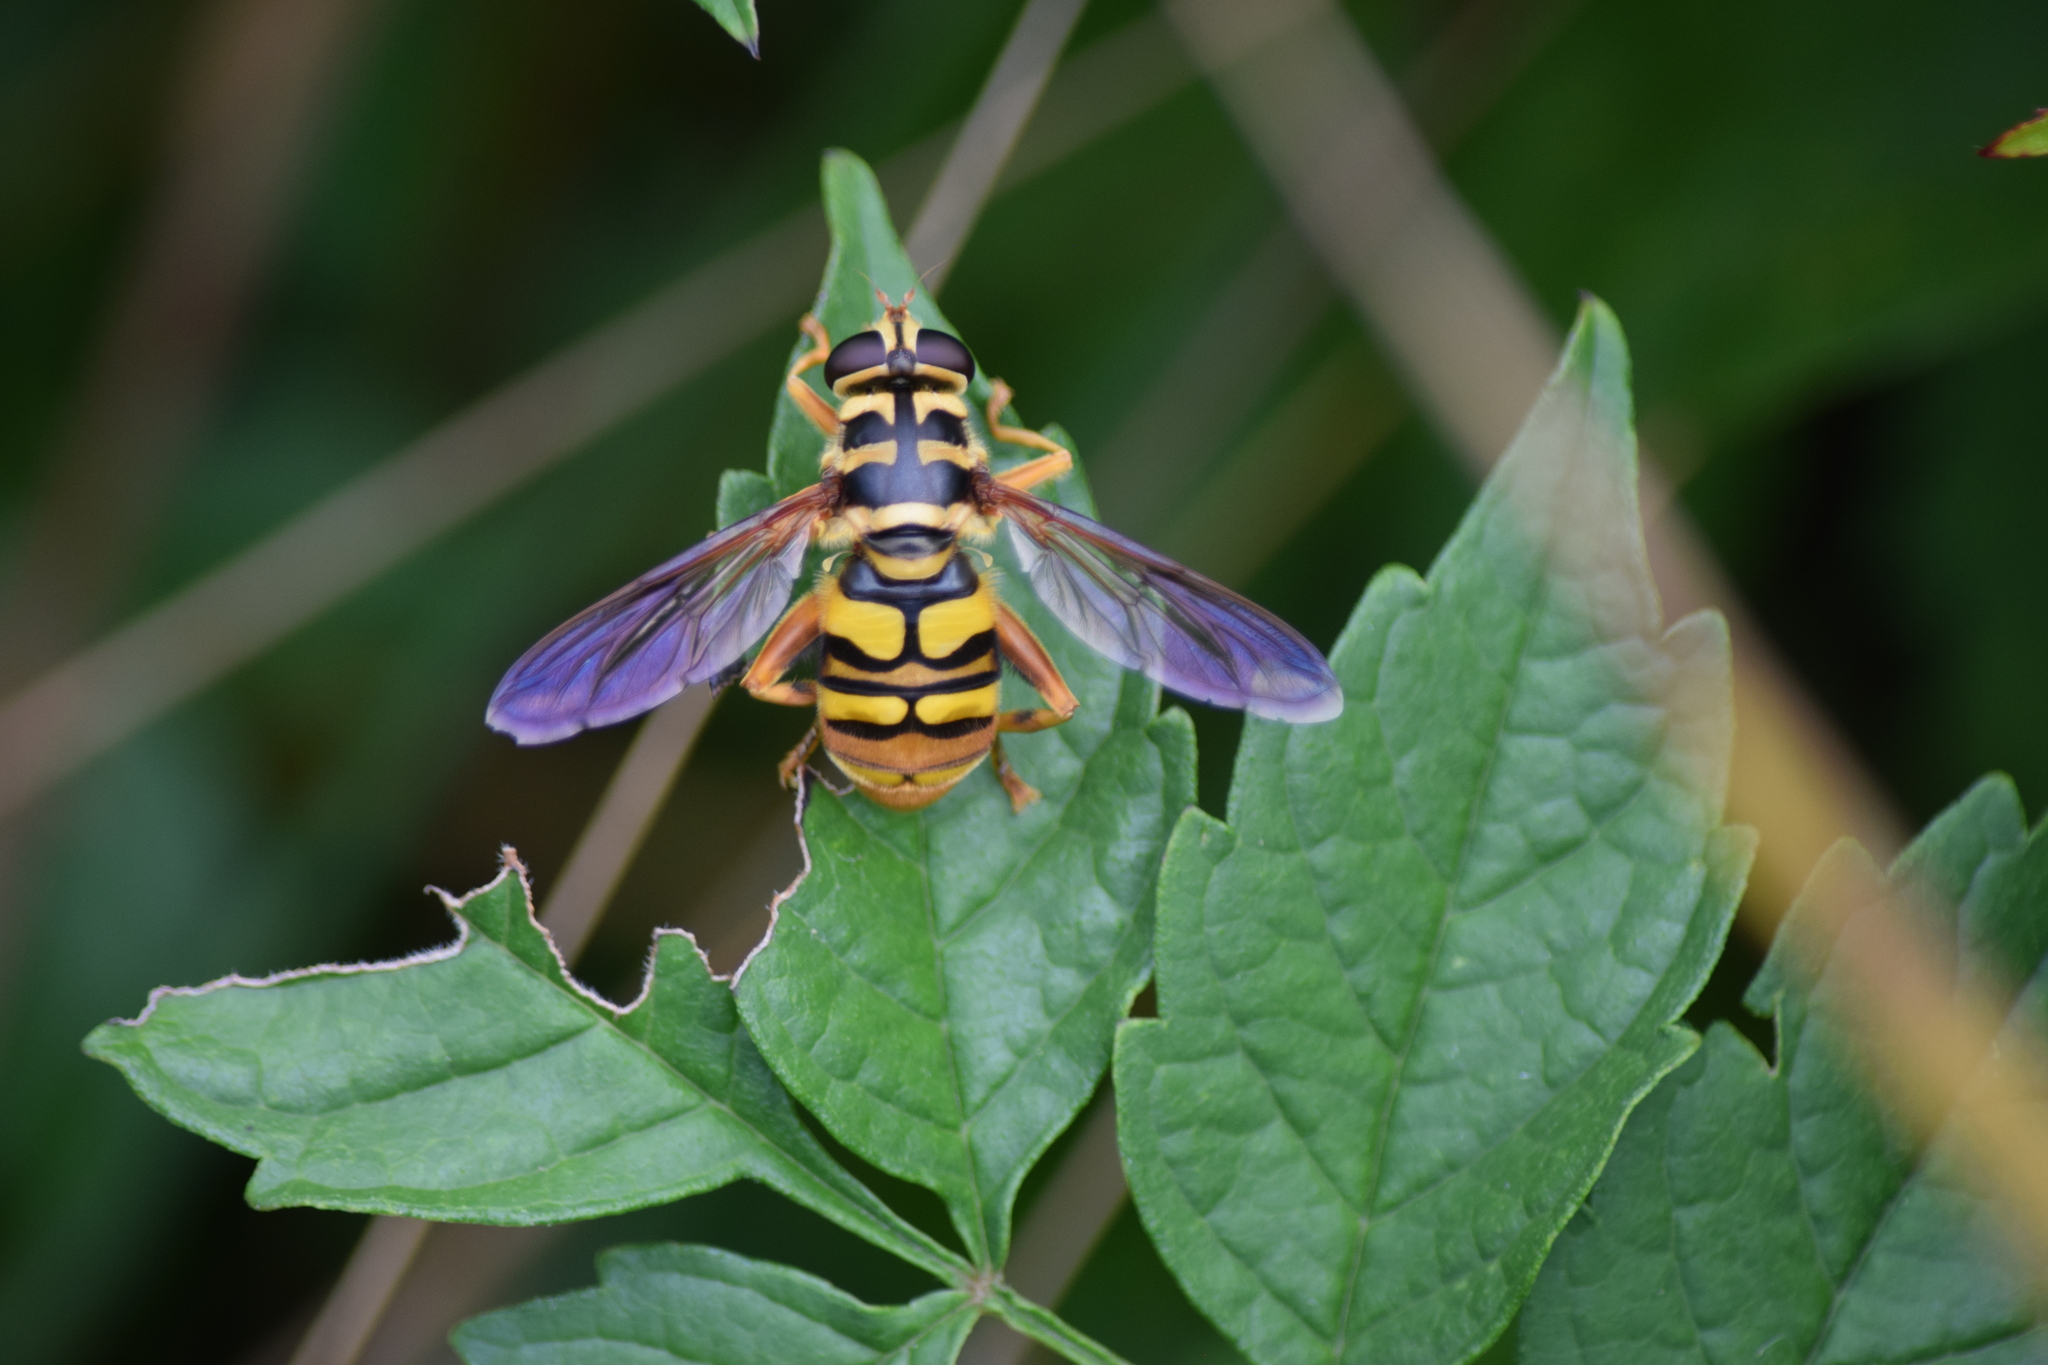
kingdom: Animalia
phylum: Arthropoda
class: Insecta
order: Diptera
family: Syrphidae
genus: Milesia
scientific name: Milesia virginiensis
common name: Virginia giant
